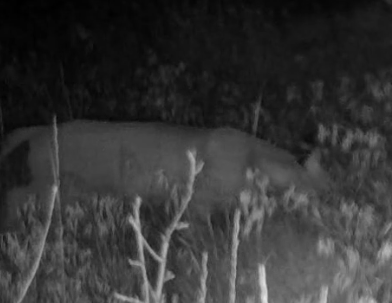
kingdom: Animalia
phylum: Chordata
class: Mammalia
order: Carnivora
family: Felidae
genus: Lynx
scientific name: Lynx rufus
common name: Bobcat
